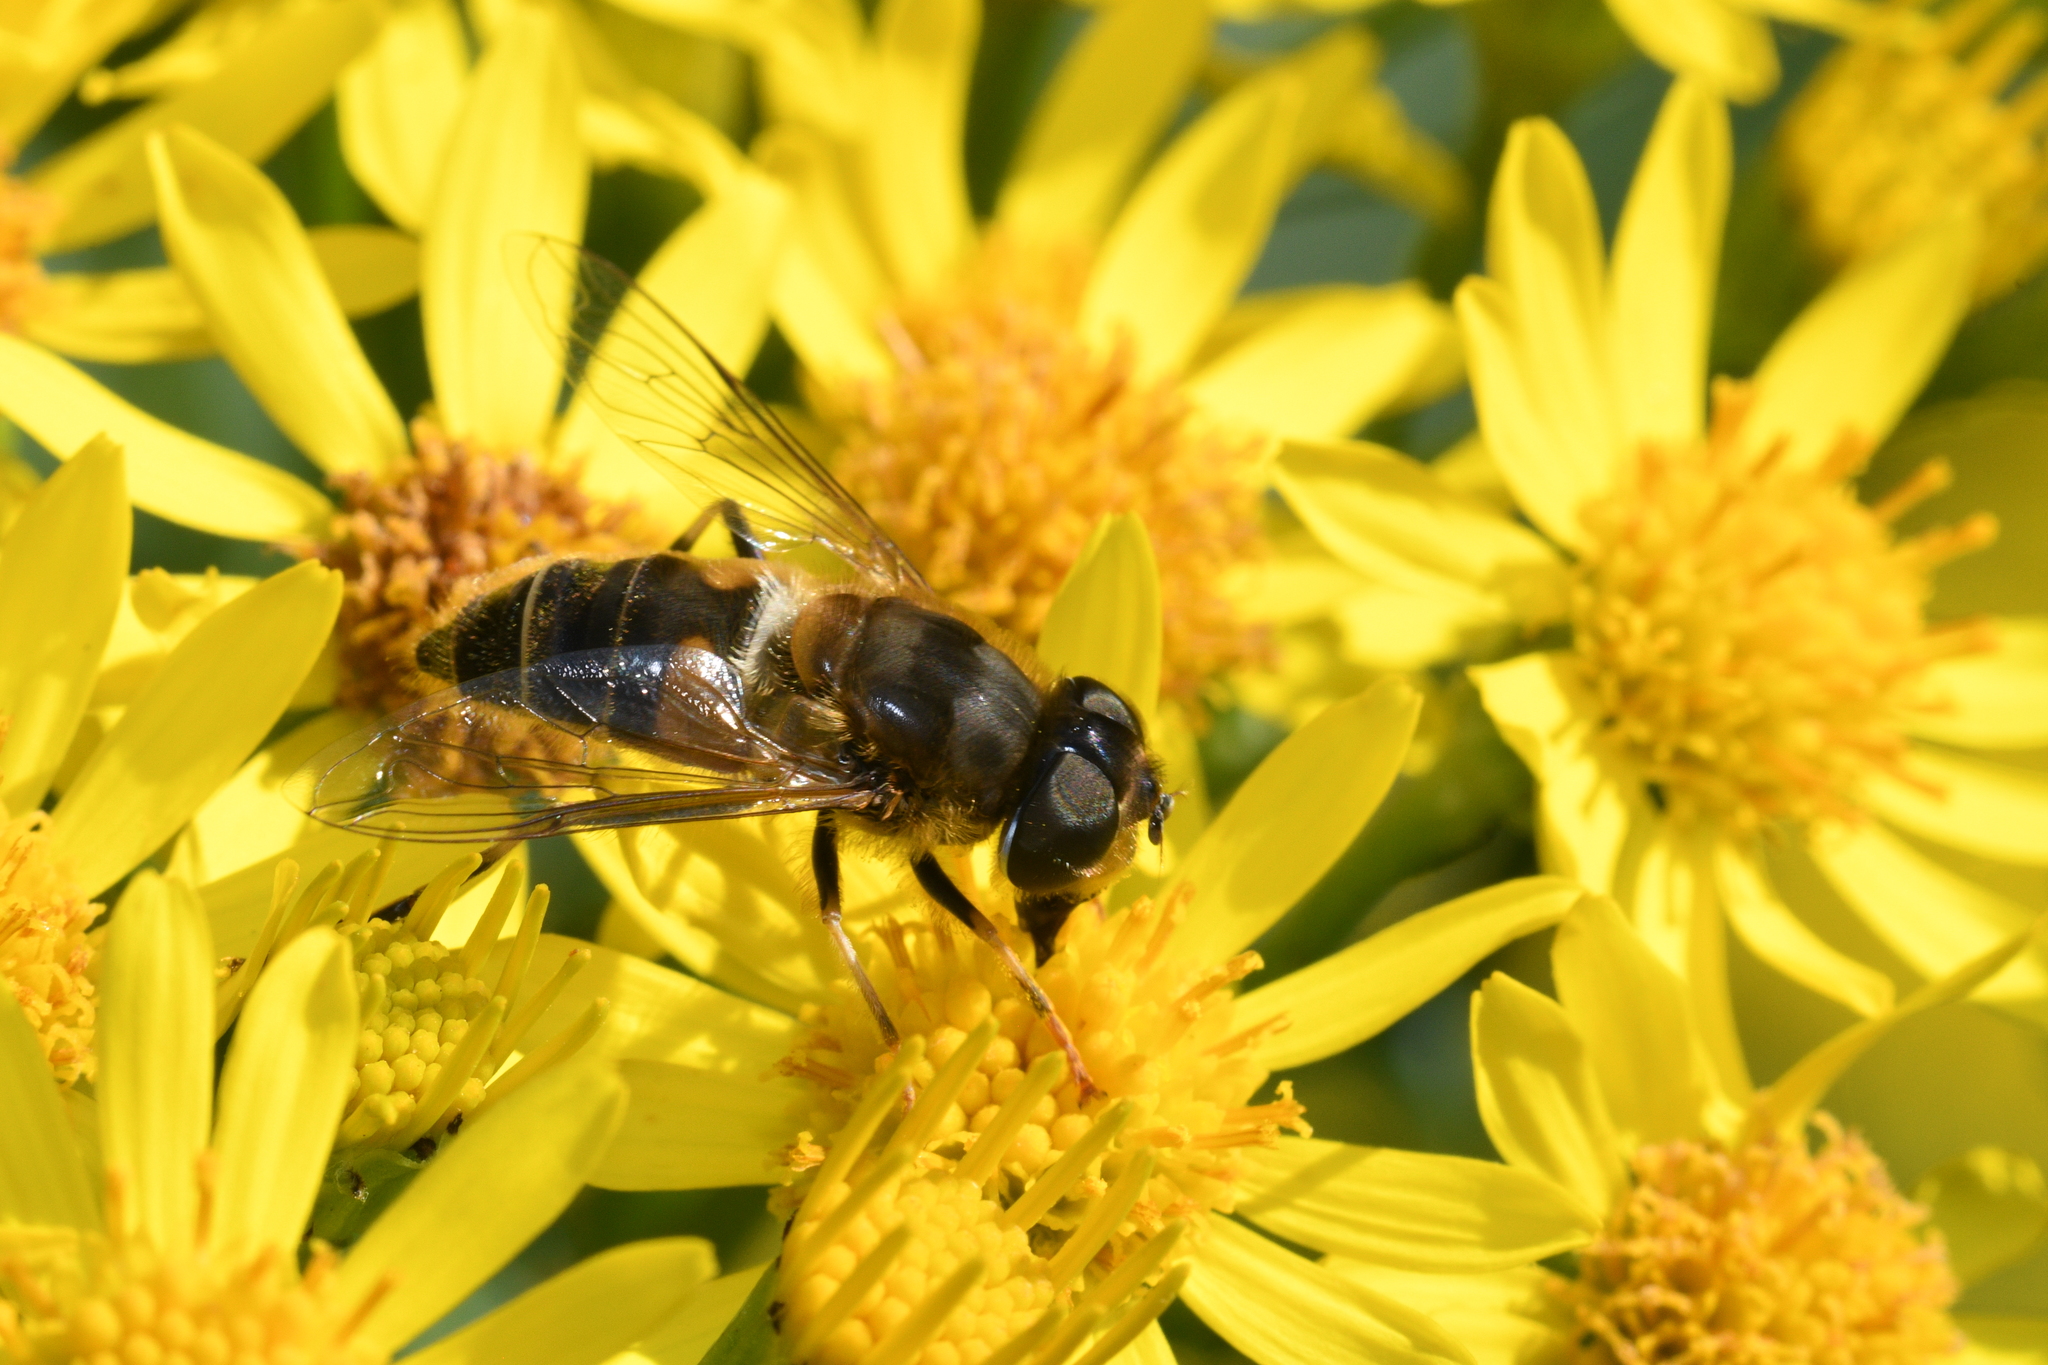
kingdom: Animalia
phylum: Arthropoda
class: Insecta
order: Diptera
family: Syrphidae
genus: Eristalis
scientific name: Eristalis pertinax
